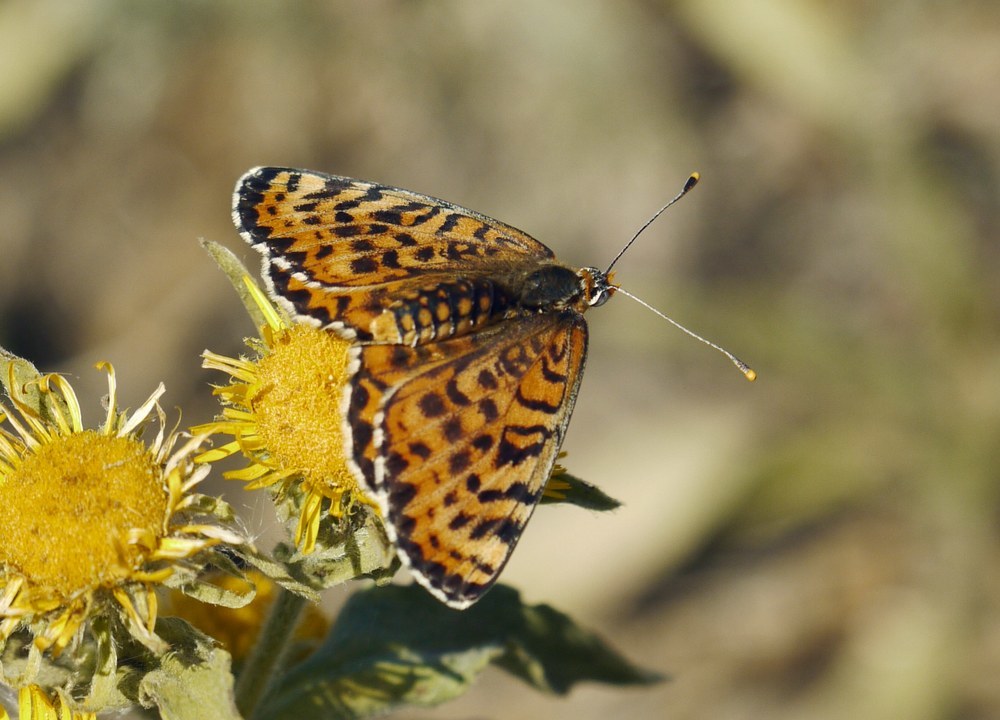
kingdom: Animalia
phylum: Arthropoda
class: Insecta
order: Lepidoptera
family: Nymphalidae
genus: Melitaea
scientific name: Melitaea didyma
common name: Spotted fritillary
